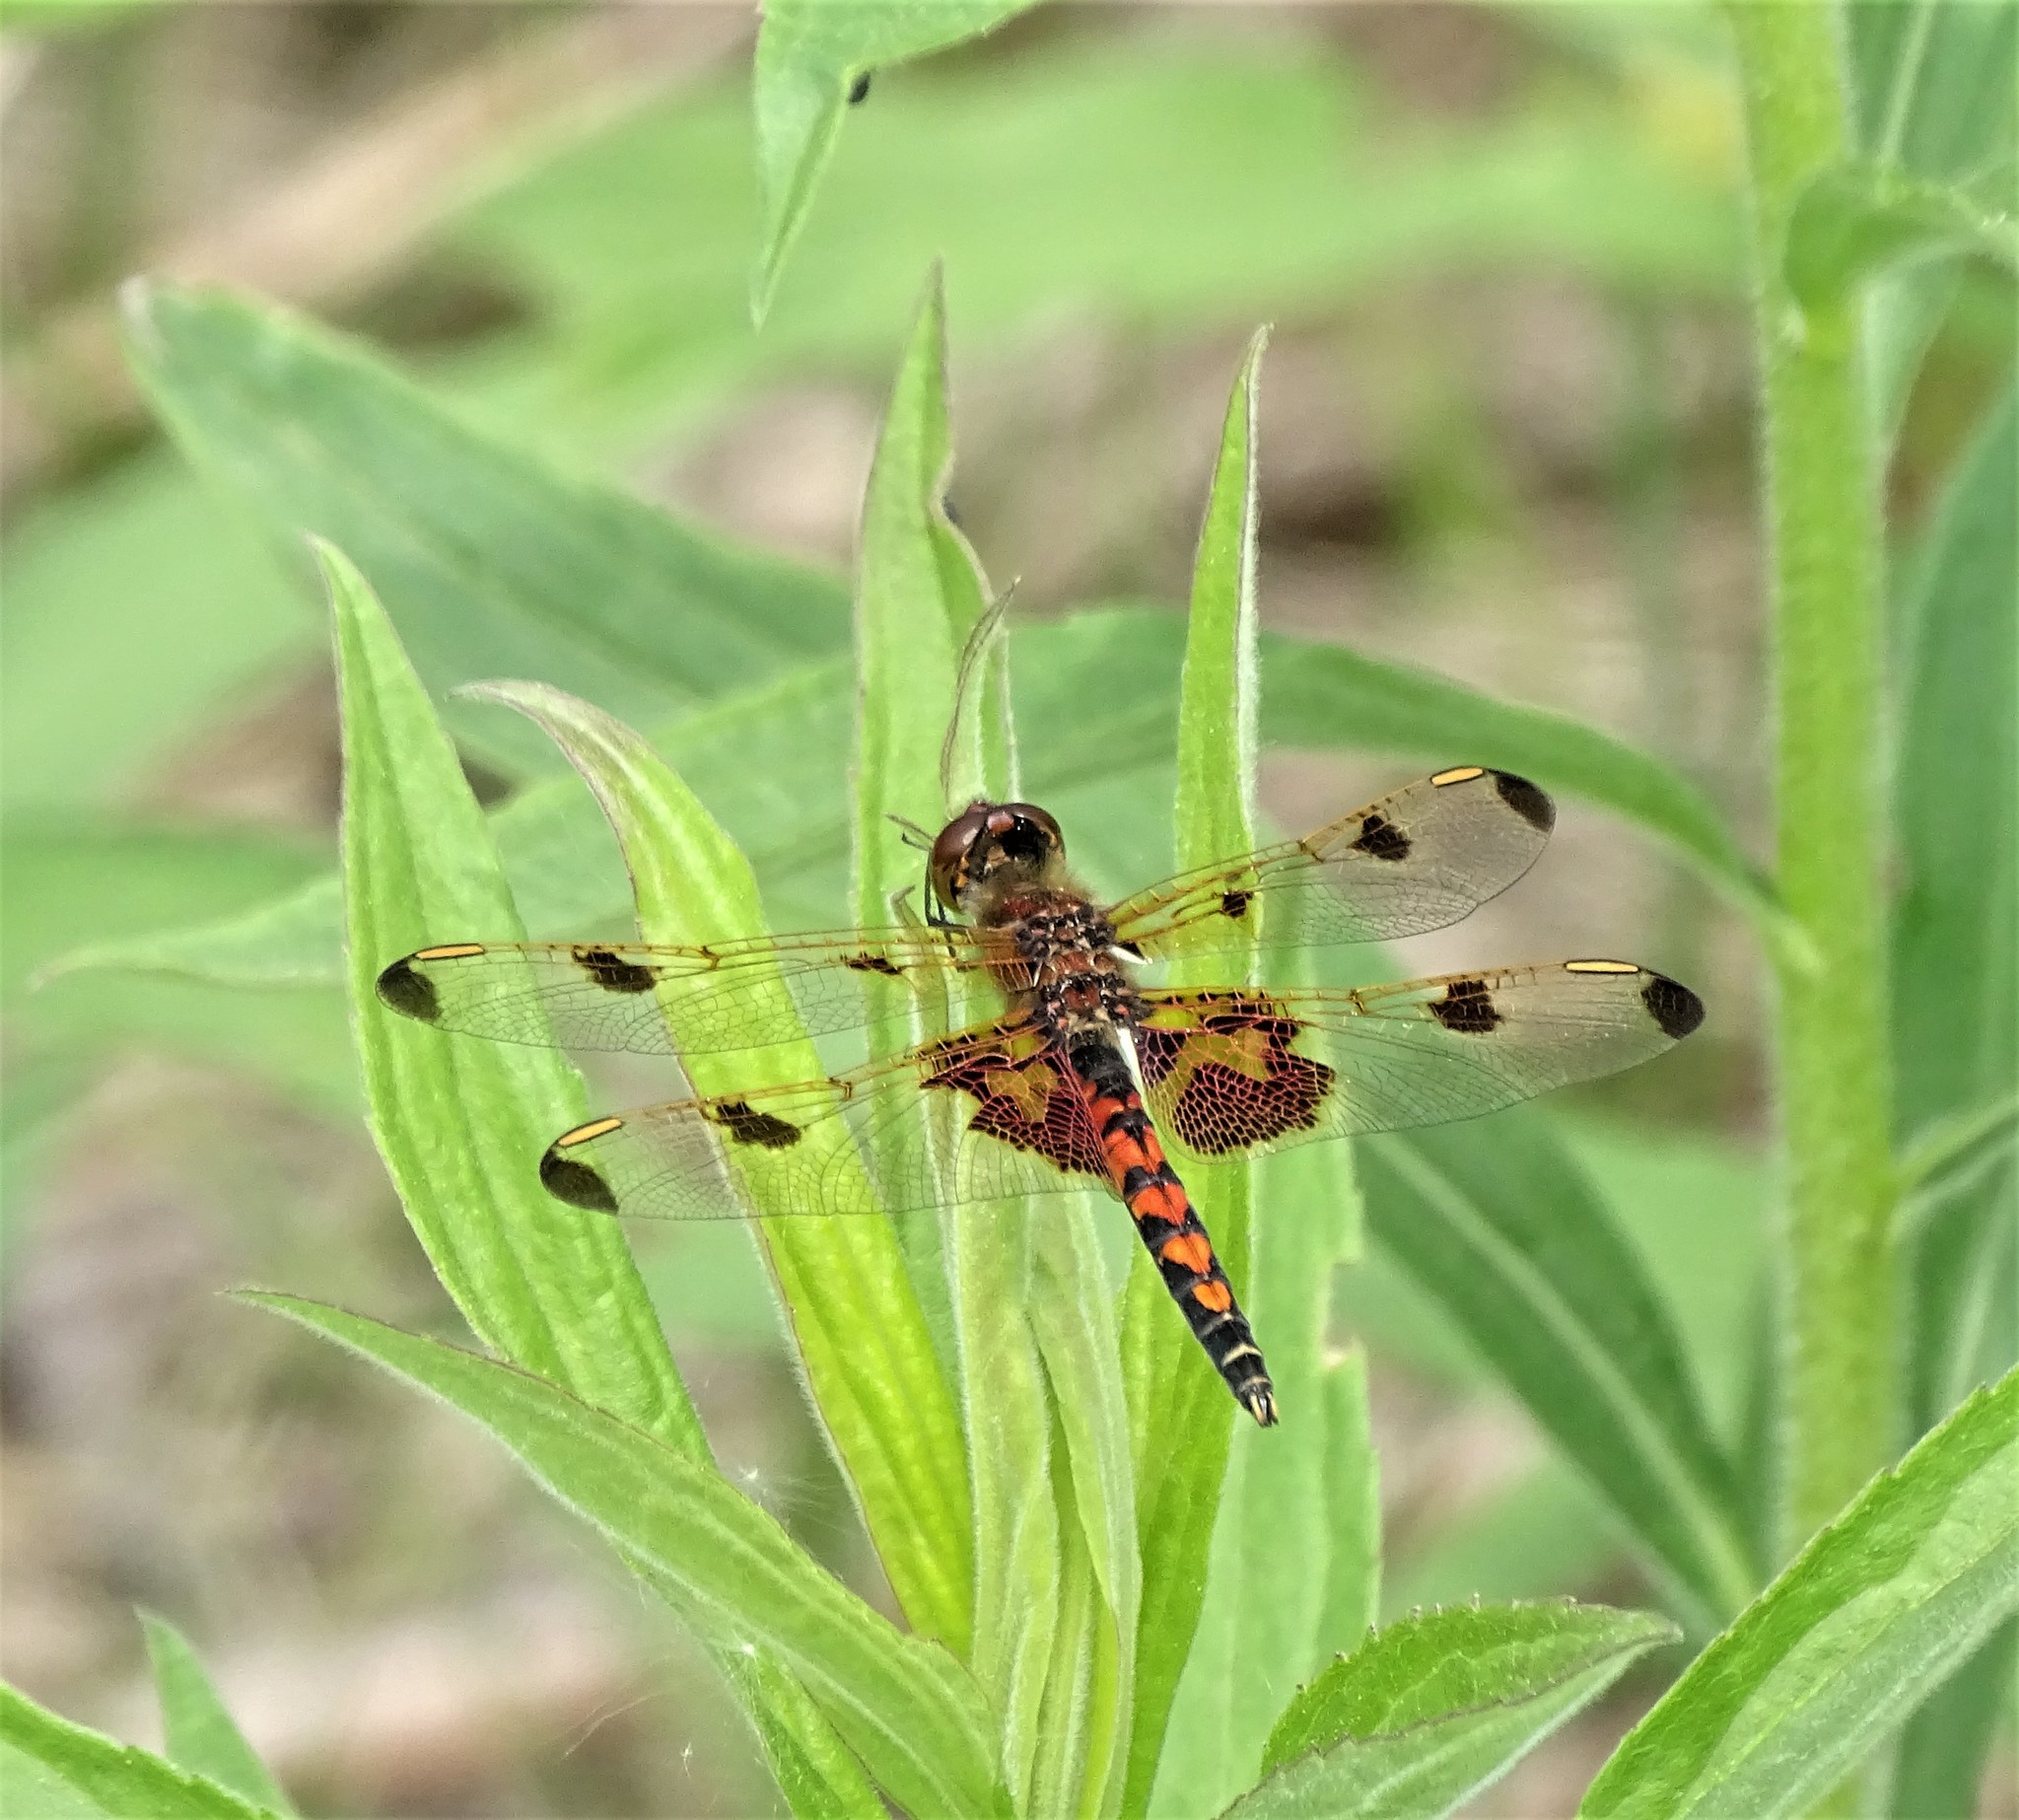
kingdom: Animalia
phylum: Arthropoda
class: Insecta
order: Odonata
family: Libellulidae
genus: Celithemis
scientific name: Celithemis elisa
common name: Calico pennant
